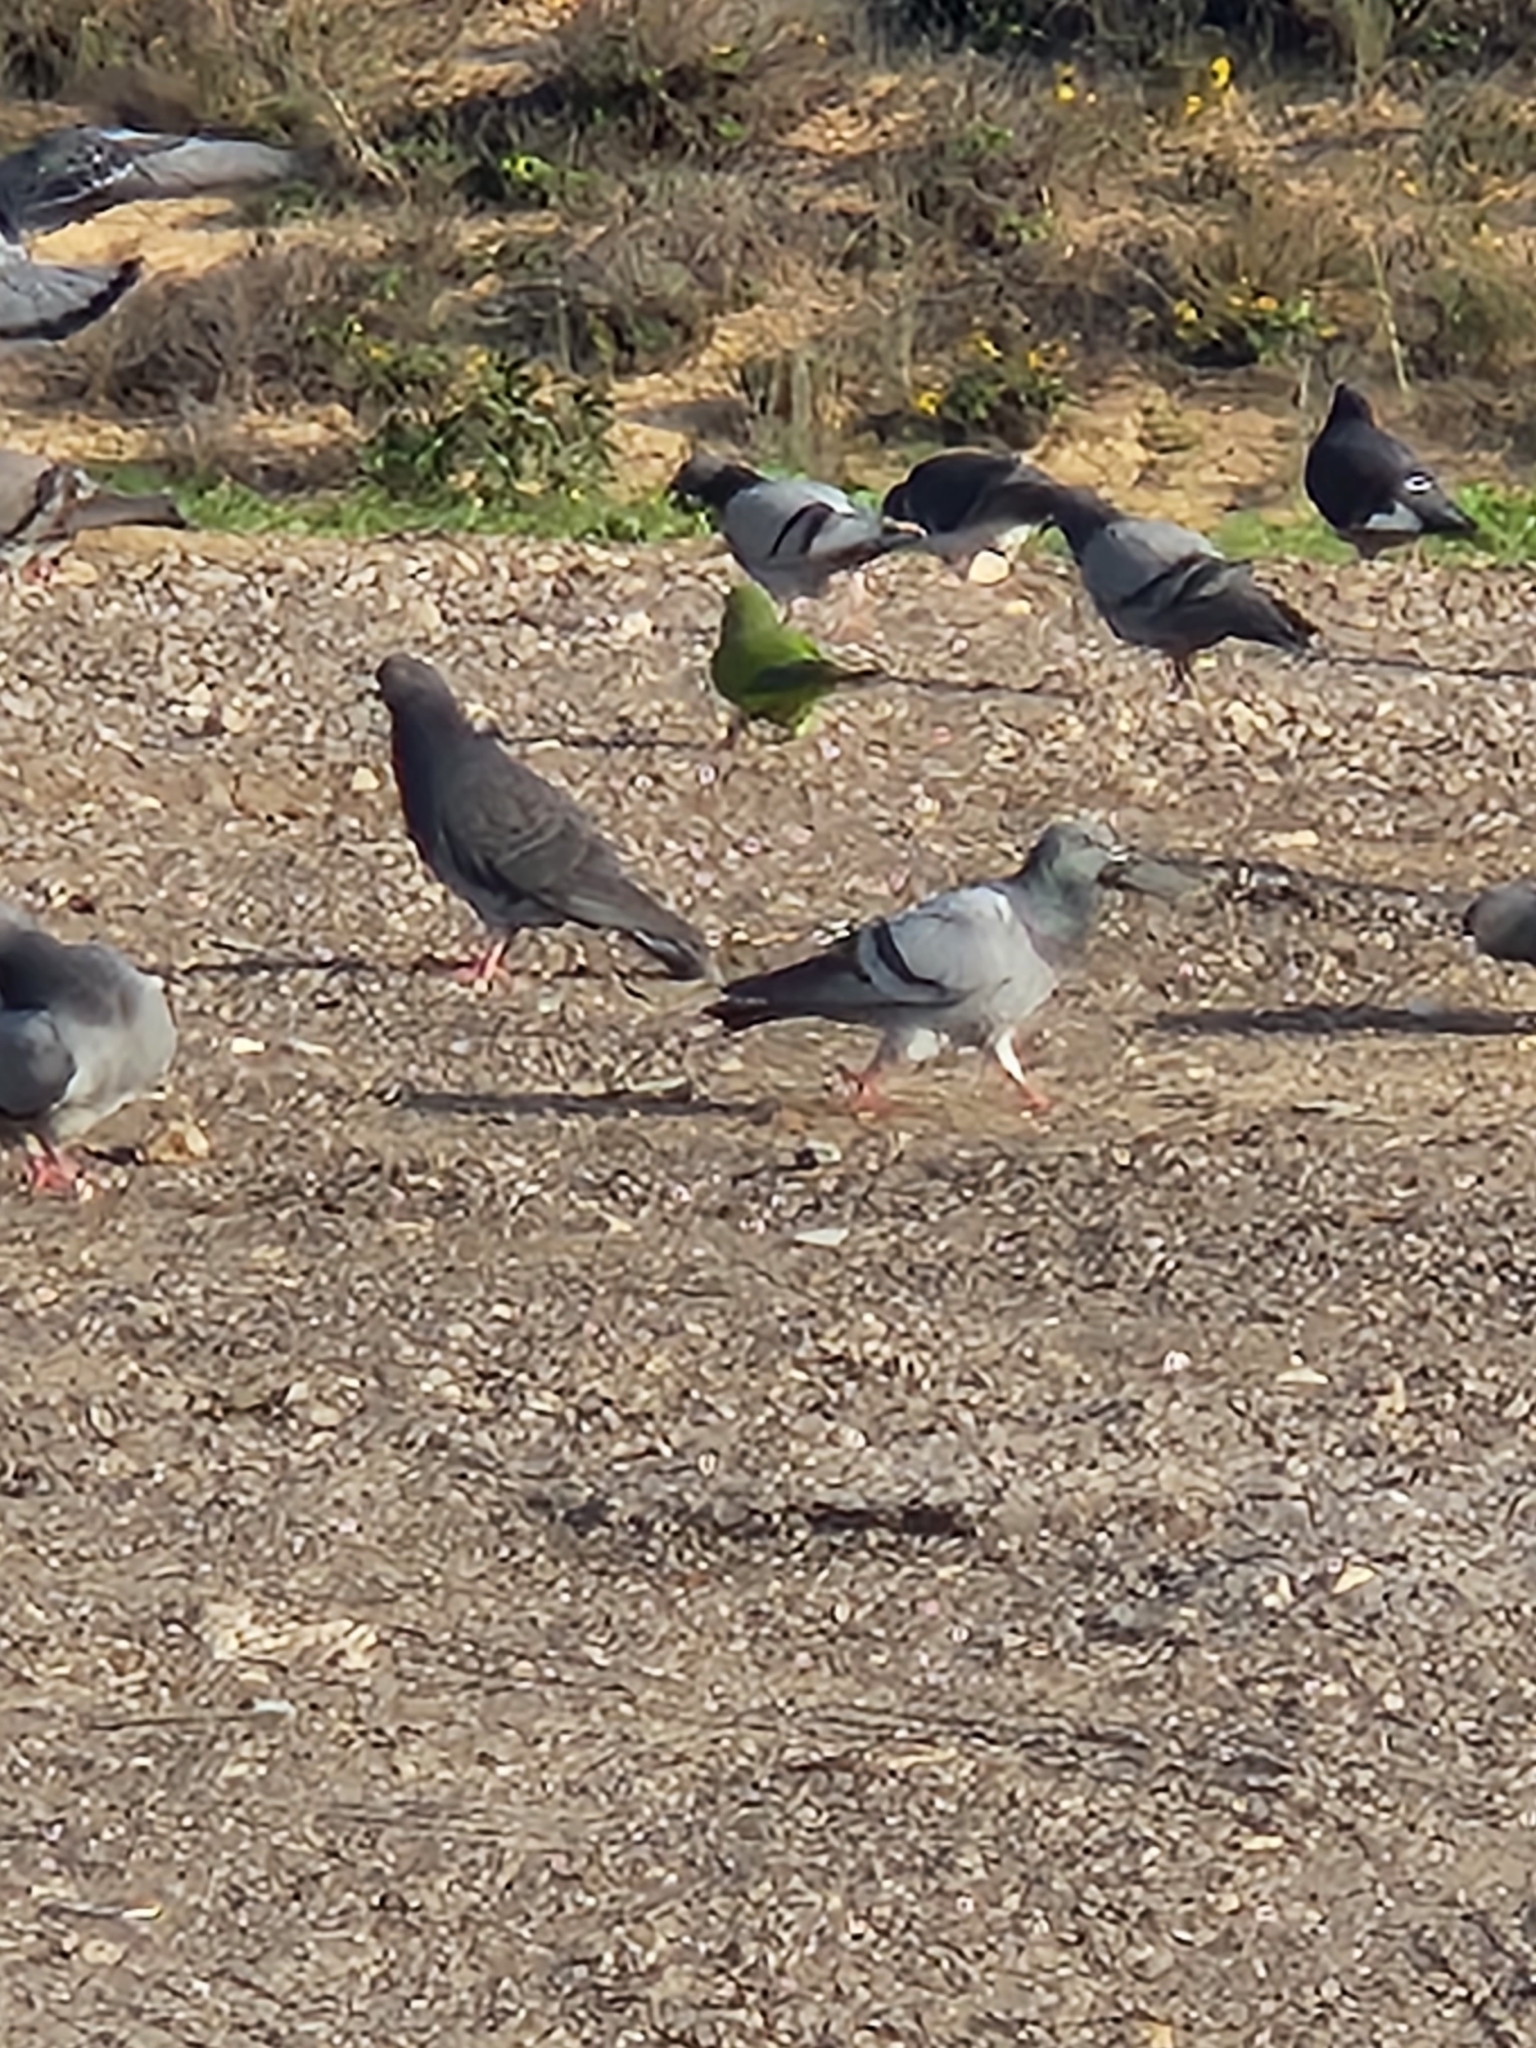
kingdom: Animalia
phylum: Chordata
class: Aves
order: Columbiformes
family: Columbidae
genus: Columba
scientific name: Columba livia
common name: Rock pigeon
